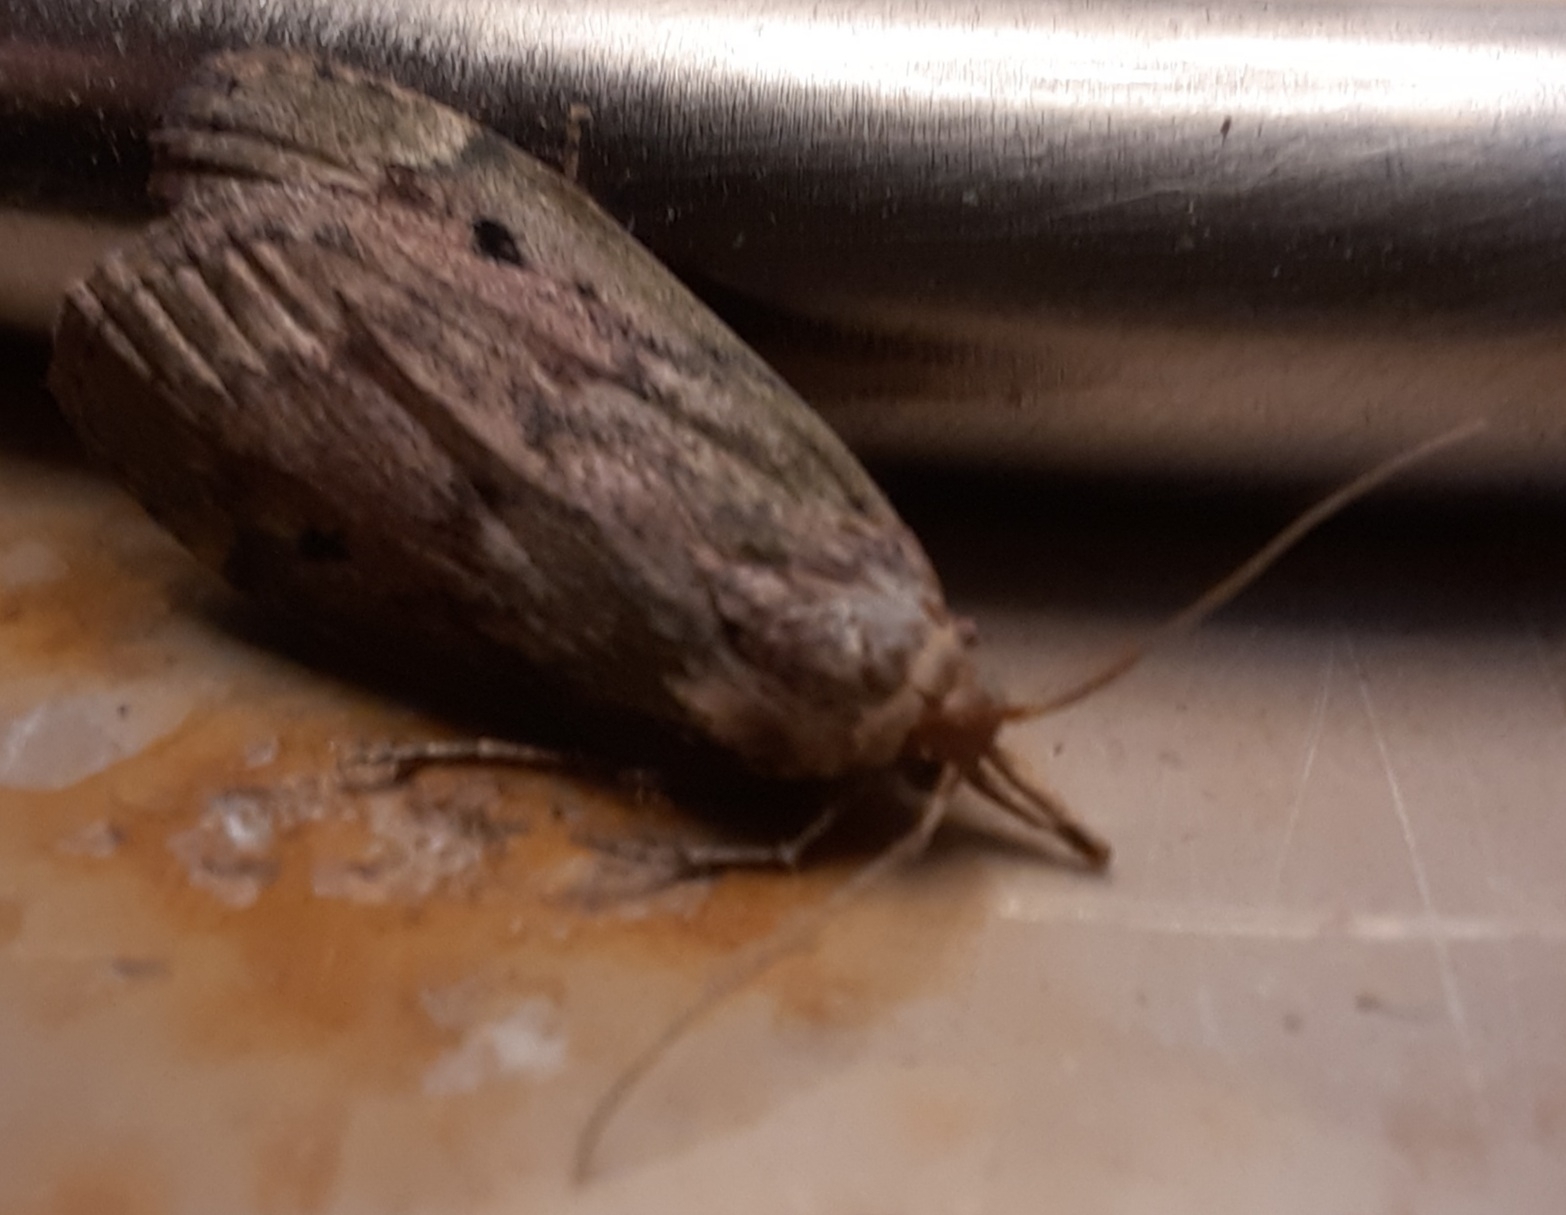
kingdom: Animalia
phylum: Arthropoda
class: Insecta
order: Lepidoptera
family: Pyralidae
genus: Aphomia
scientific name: Aphomia sociella
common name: Bee moth
